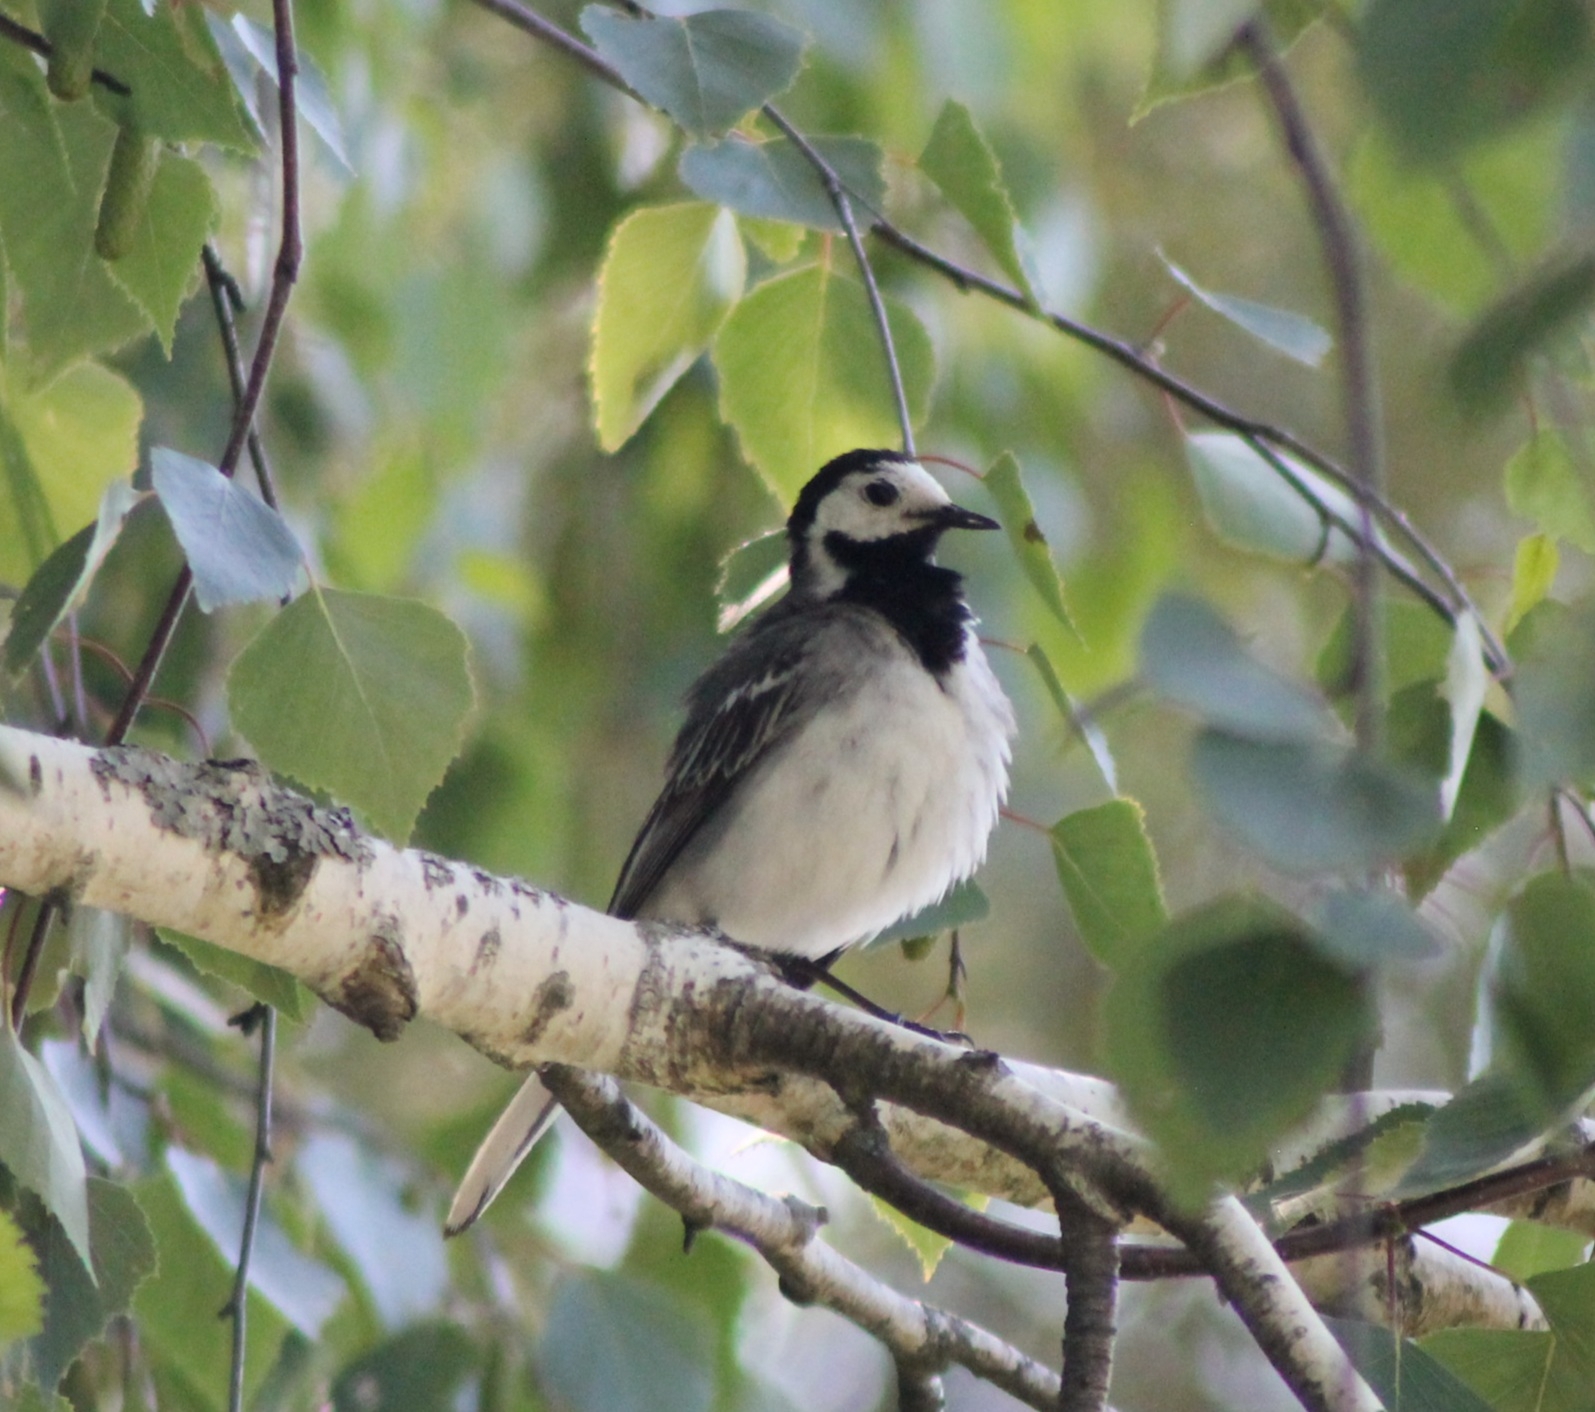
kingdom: Animalia
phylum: Chordata
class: Aves
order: Passeriformes
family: Motacillidae
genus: Motacilla
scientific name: Motacilla alba
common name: White wagtail
